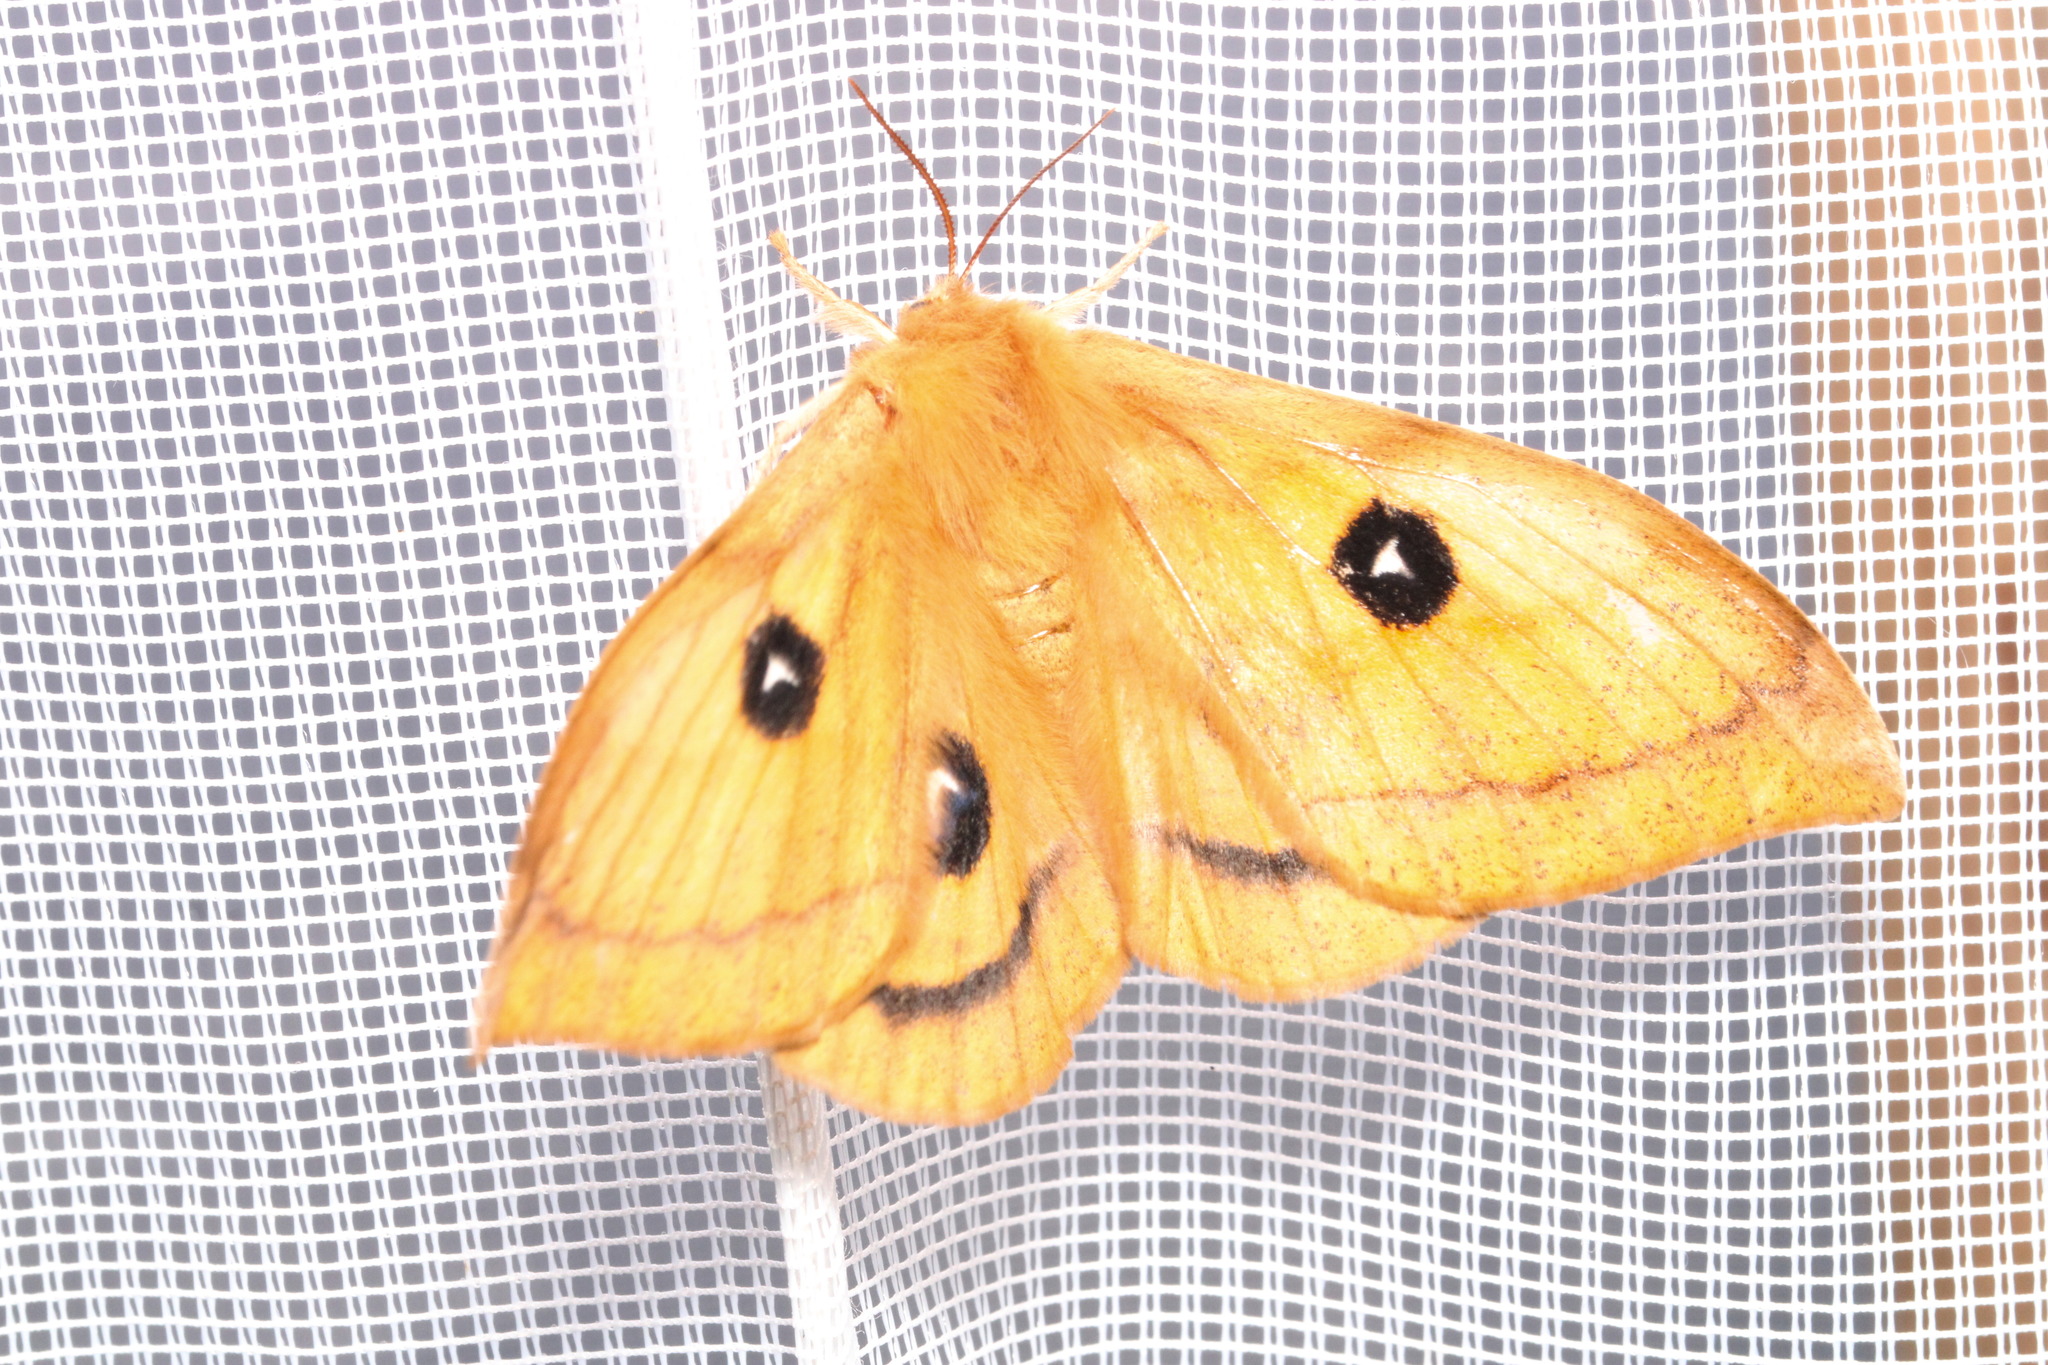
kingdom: Animalia
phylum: Arthropoda
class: Insecta
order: Lepidoptera
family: Saturniidae
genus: Aglia
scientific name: Aglia tau
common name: Tau emperor
